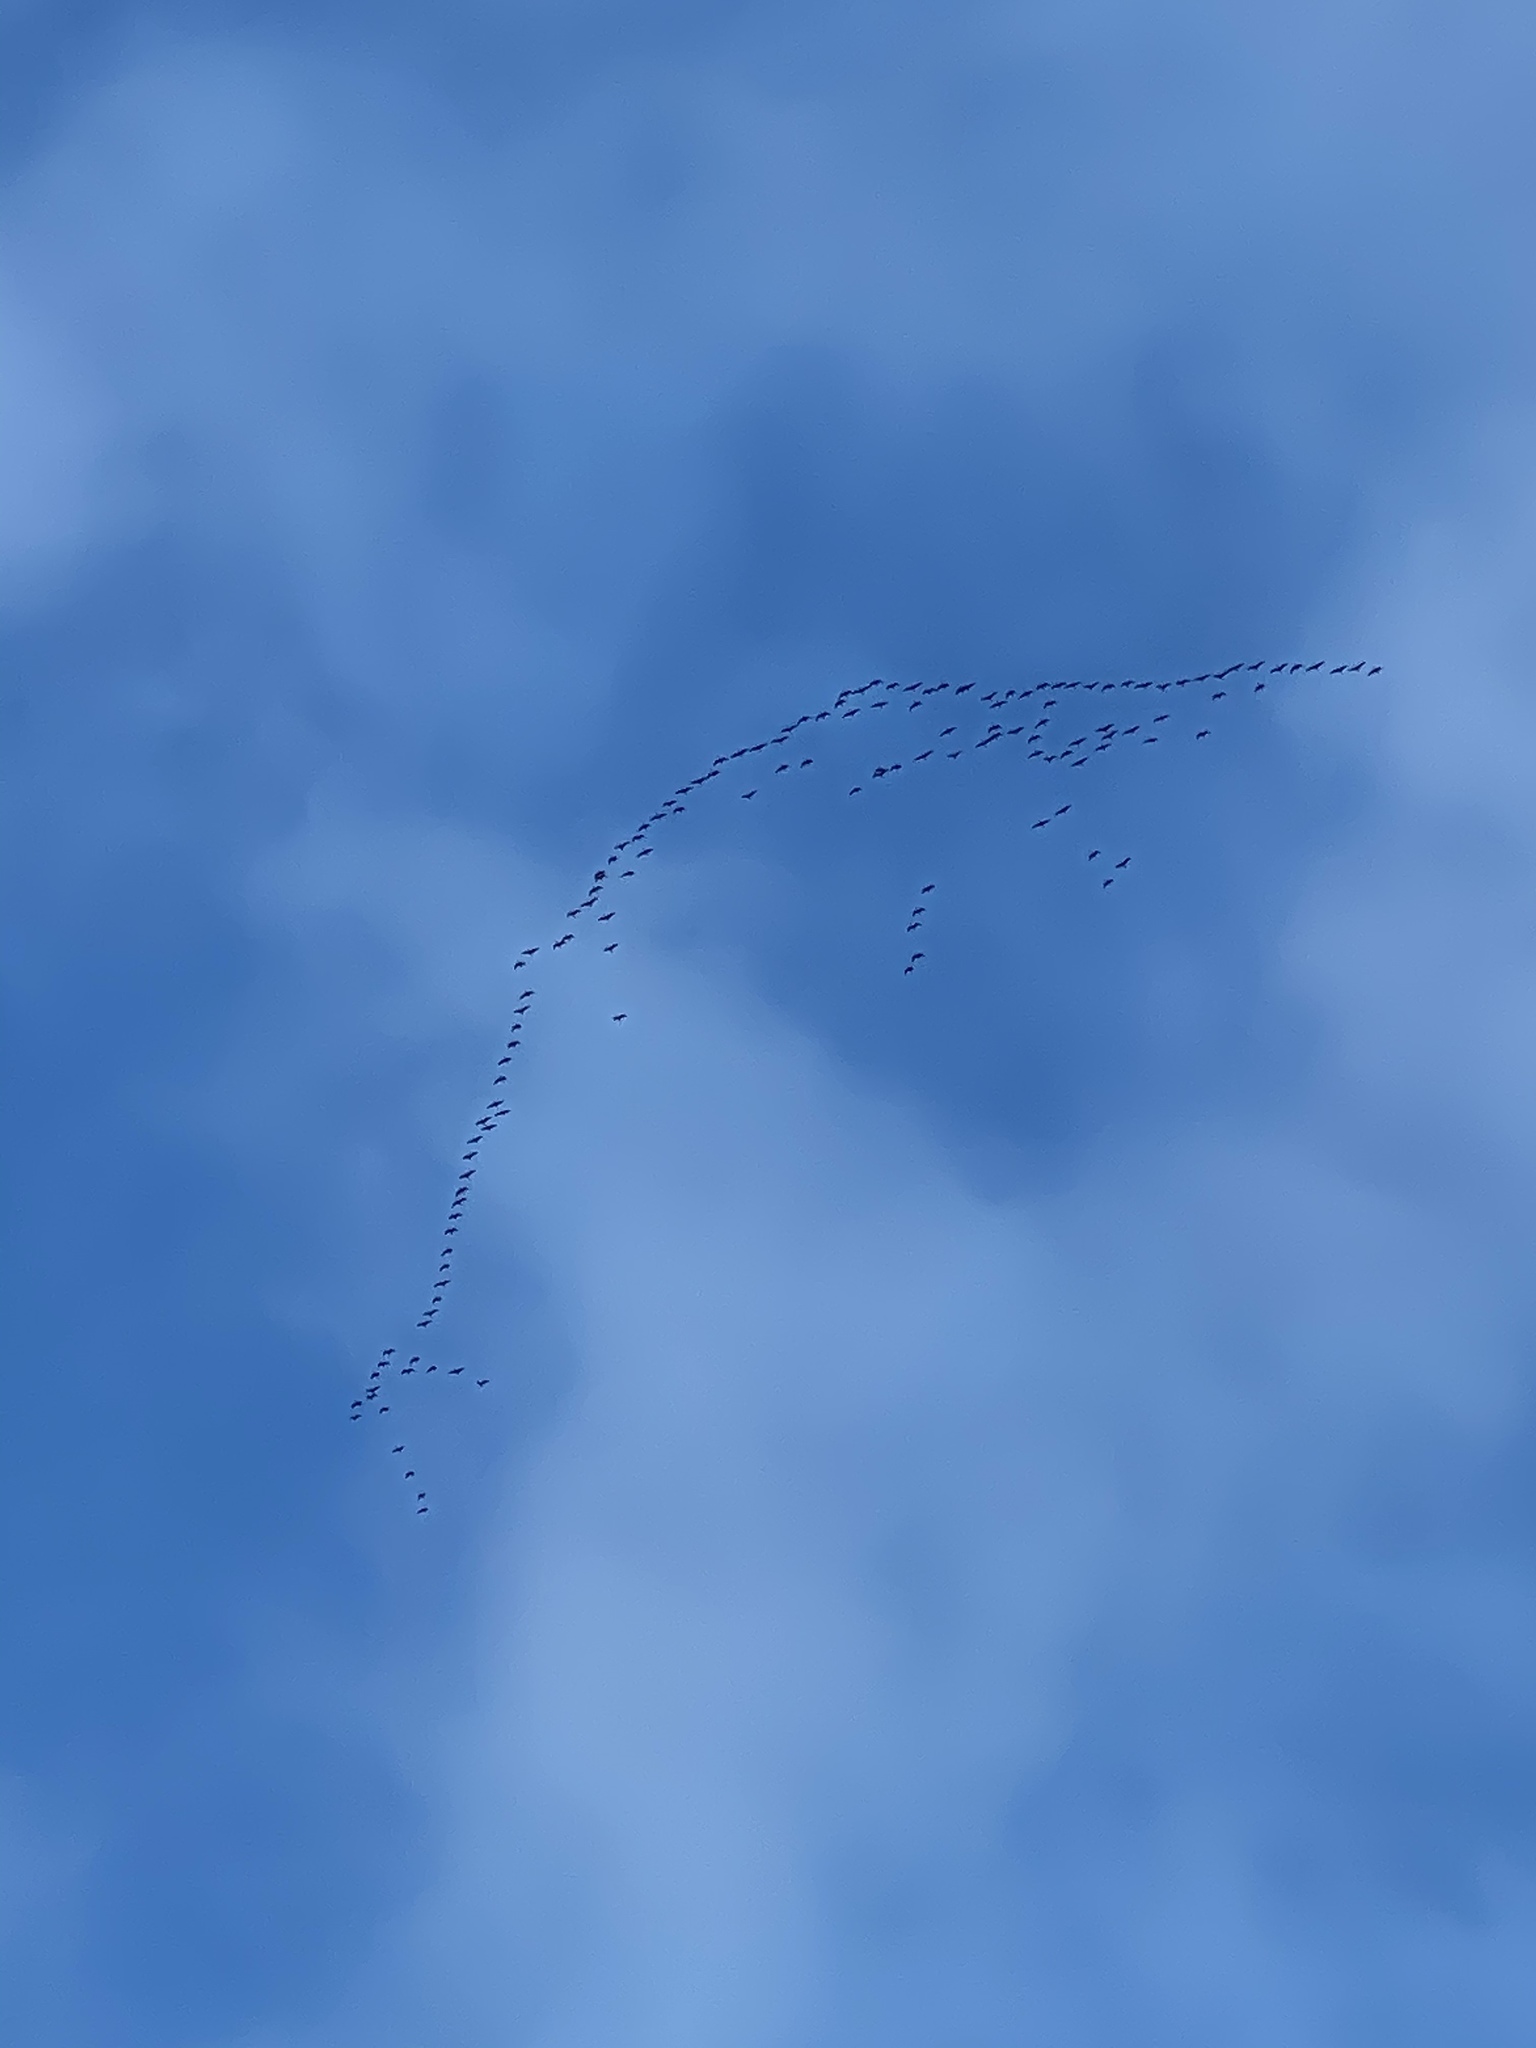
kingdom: Animalia
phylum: Chordata
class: Aves
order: Anseriformes
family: Anatidae
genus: Branta
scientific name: Branta hutchinsii
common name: Cackling goose
